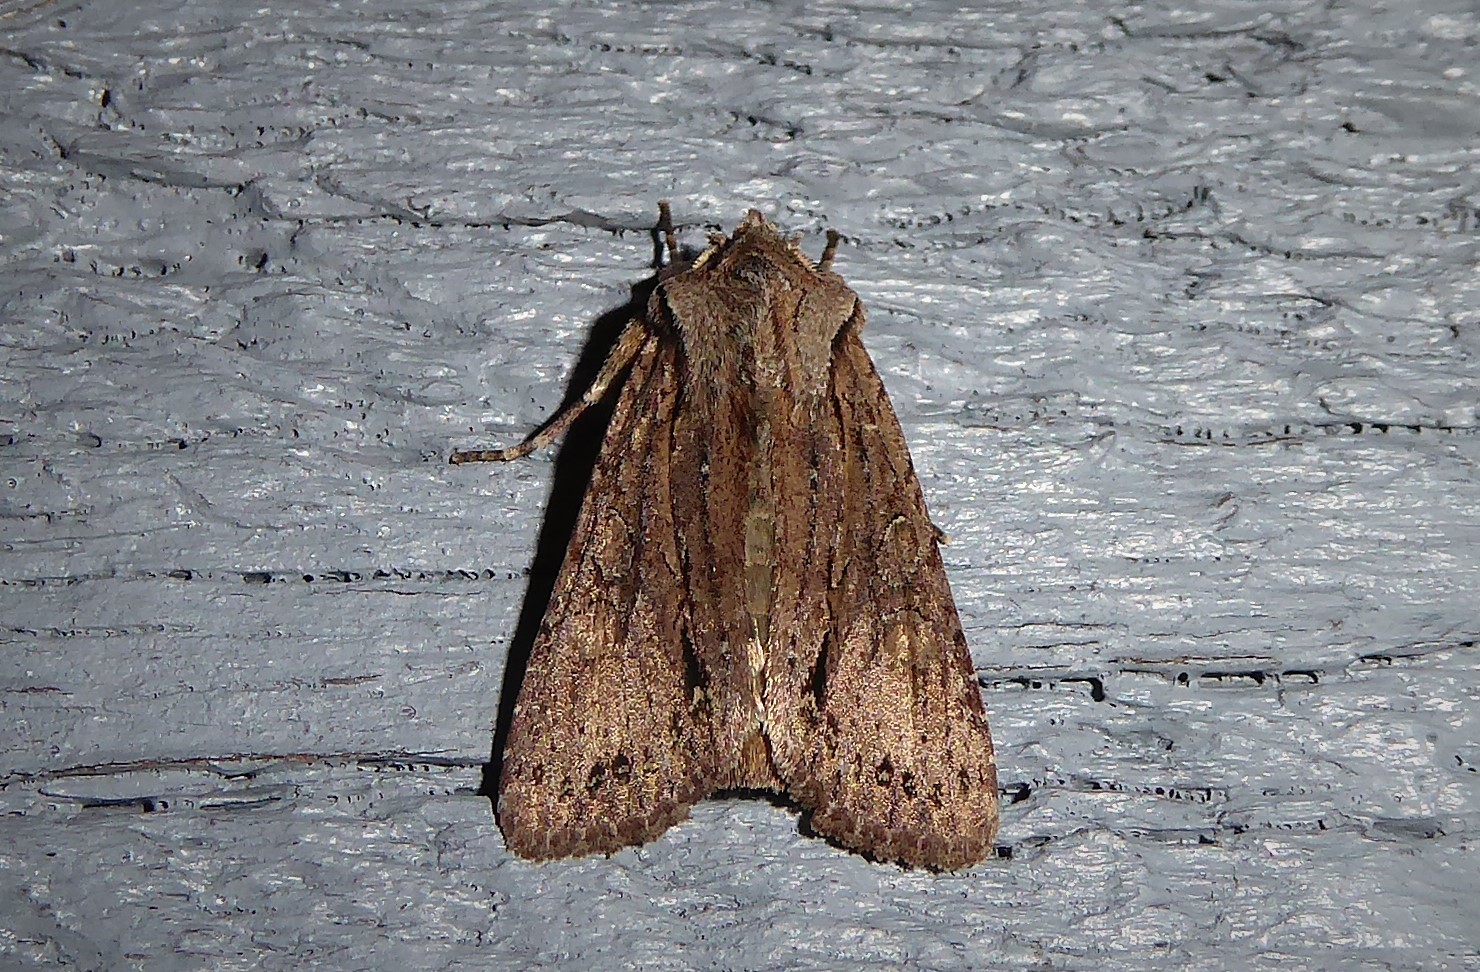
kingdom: Animalia
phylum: Arthropoda
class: Insecta
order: Lepidoptera
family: Noctuidae
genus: Ichneutica
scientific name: Ichneutica
